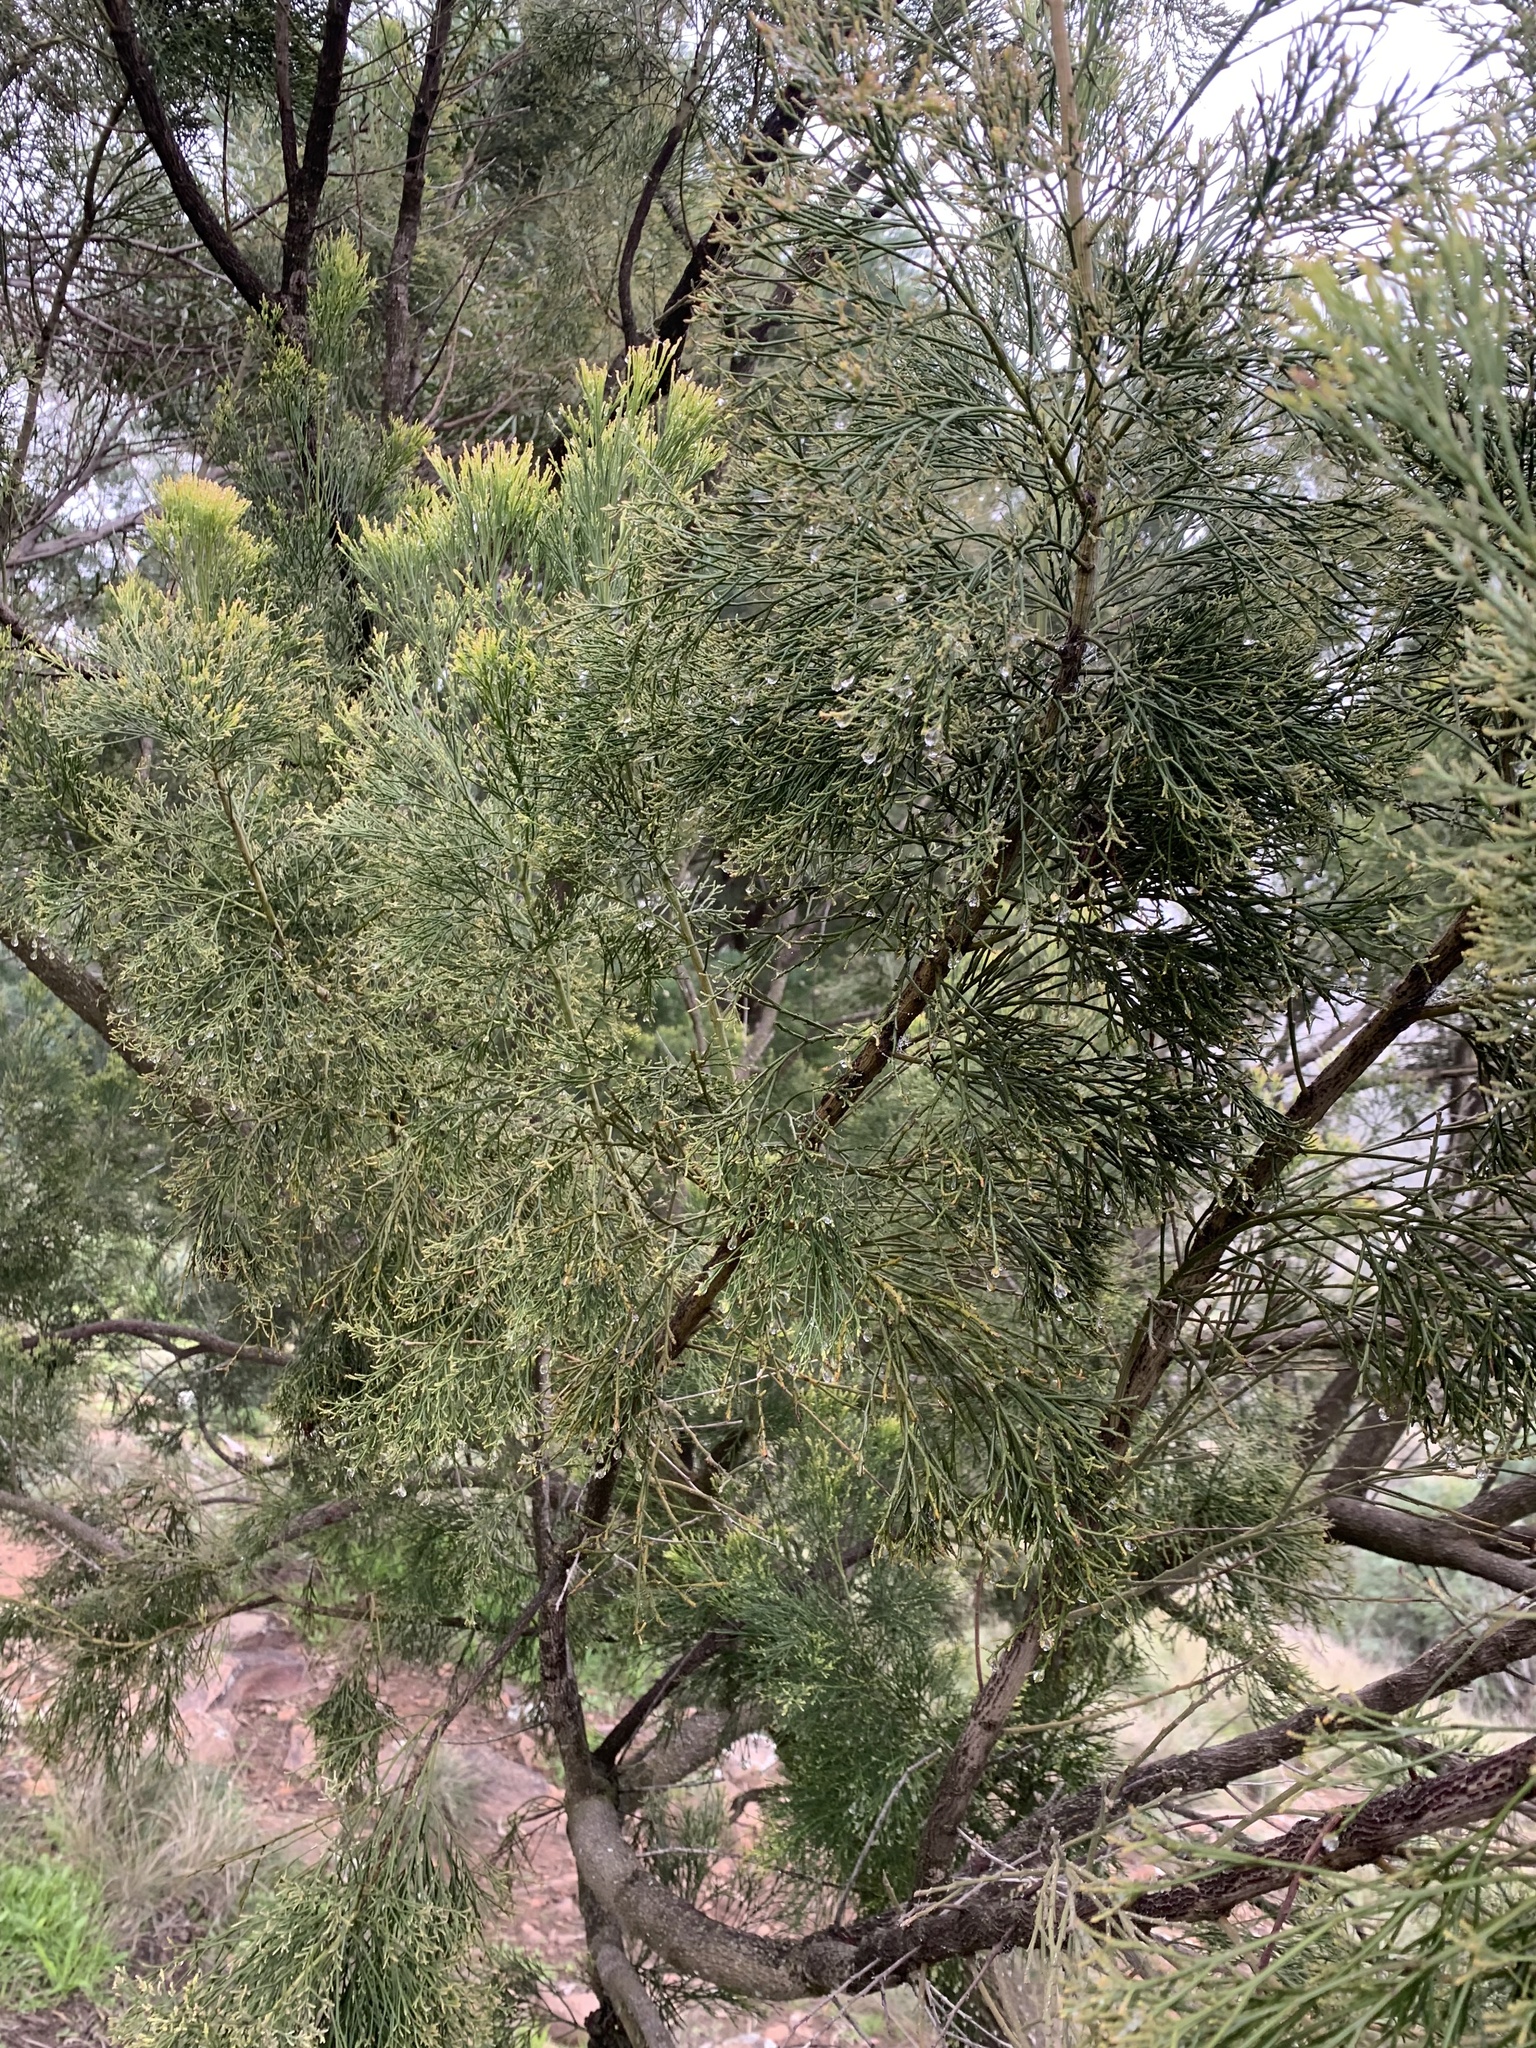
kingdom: Plantae
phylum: Tracheophyta
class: Magnoliopsida
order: Santalales
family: Santalaceae
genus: Exocarpos
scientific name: Exocarpos cupressiformis
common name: Cherry ballart
